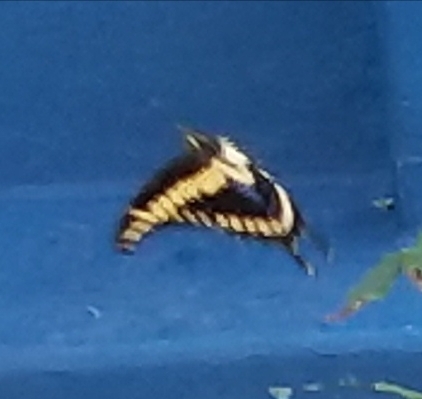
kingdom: Animalia
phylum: Arthropoda
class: Insecta
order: Lepidoptera
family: Papilionidae
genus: Papilio
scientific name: Papilio rumiko
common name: Western giant swallowtail
